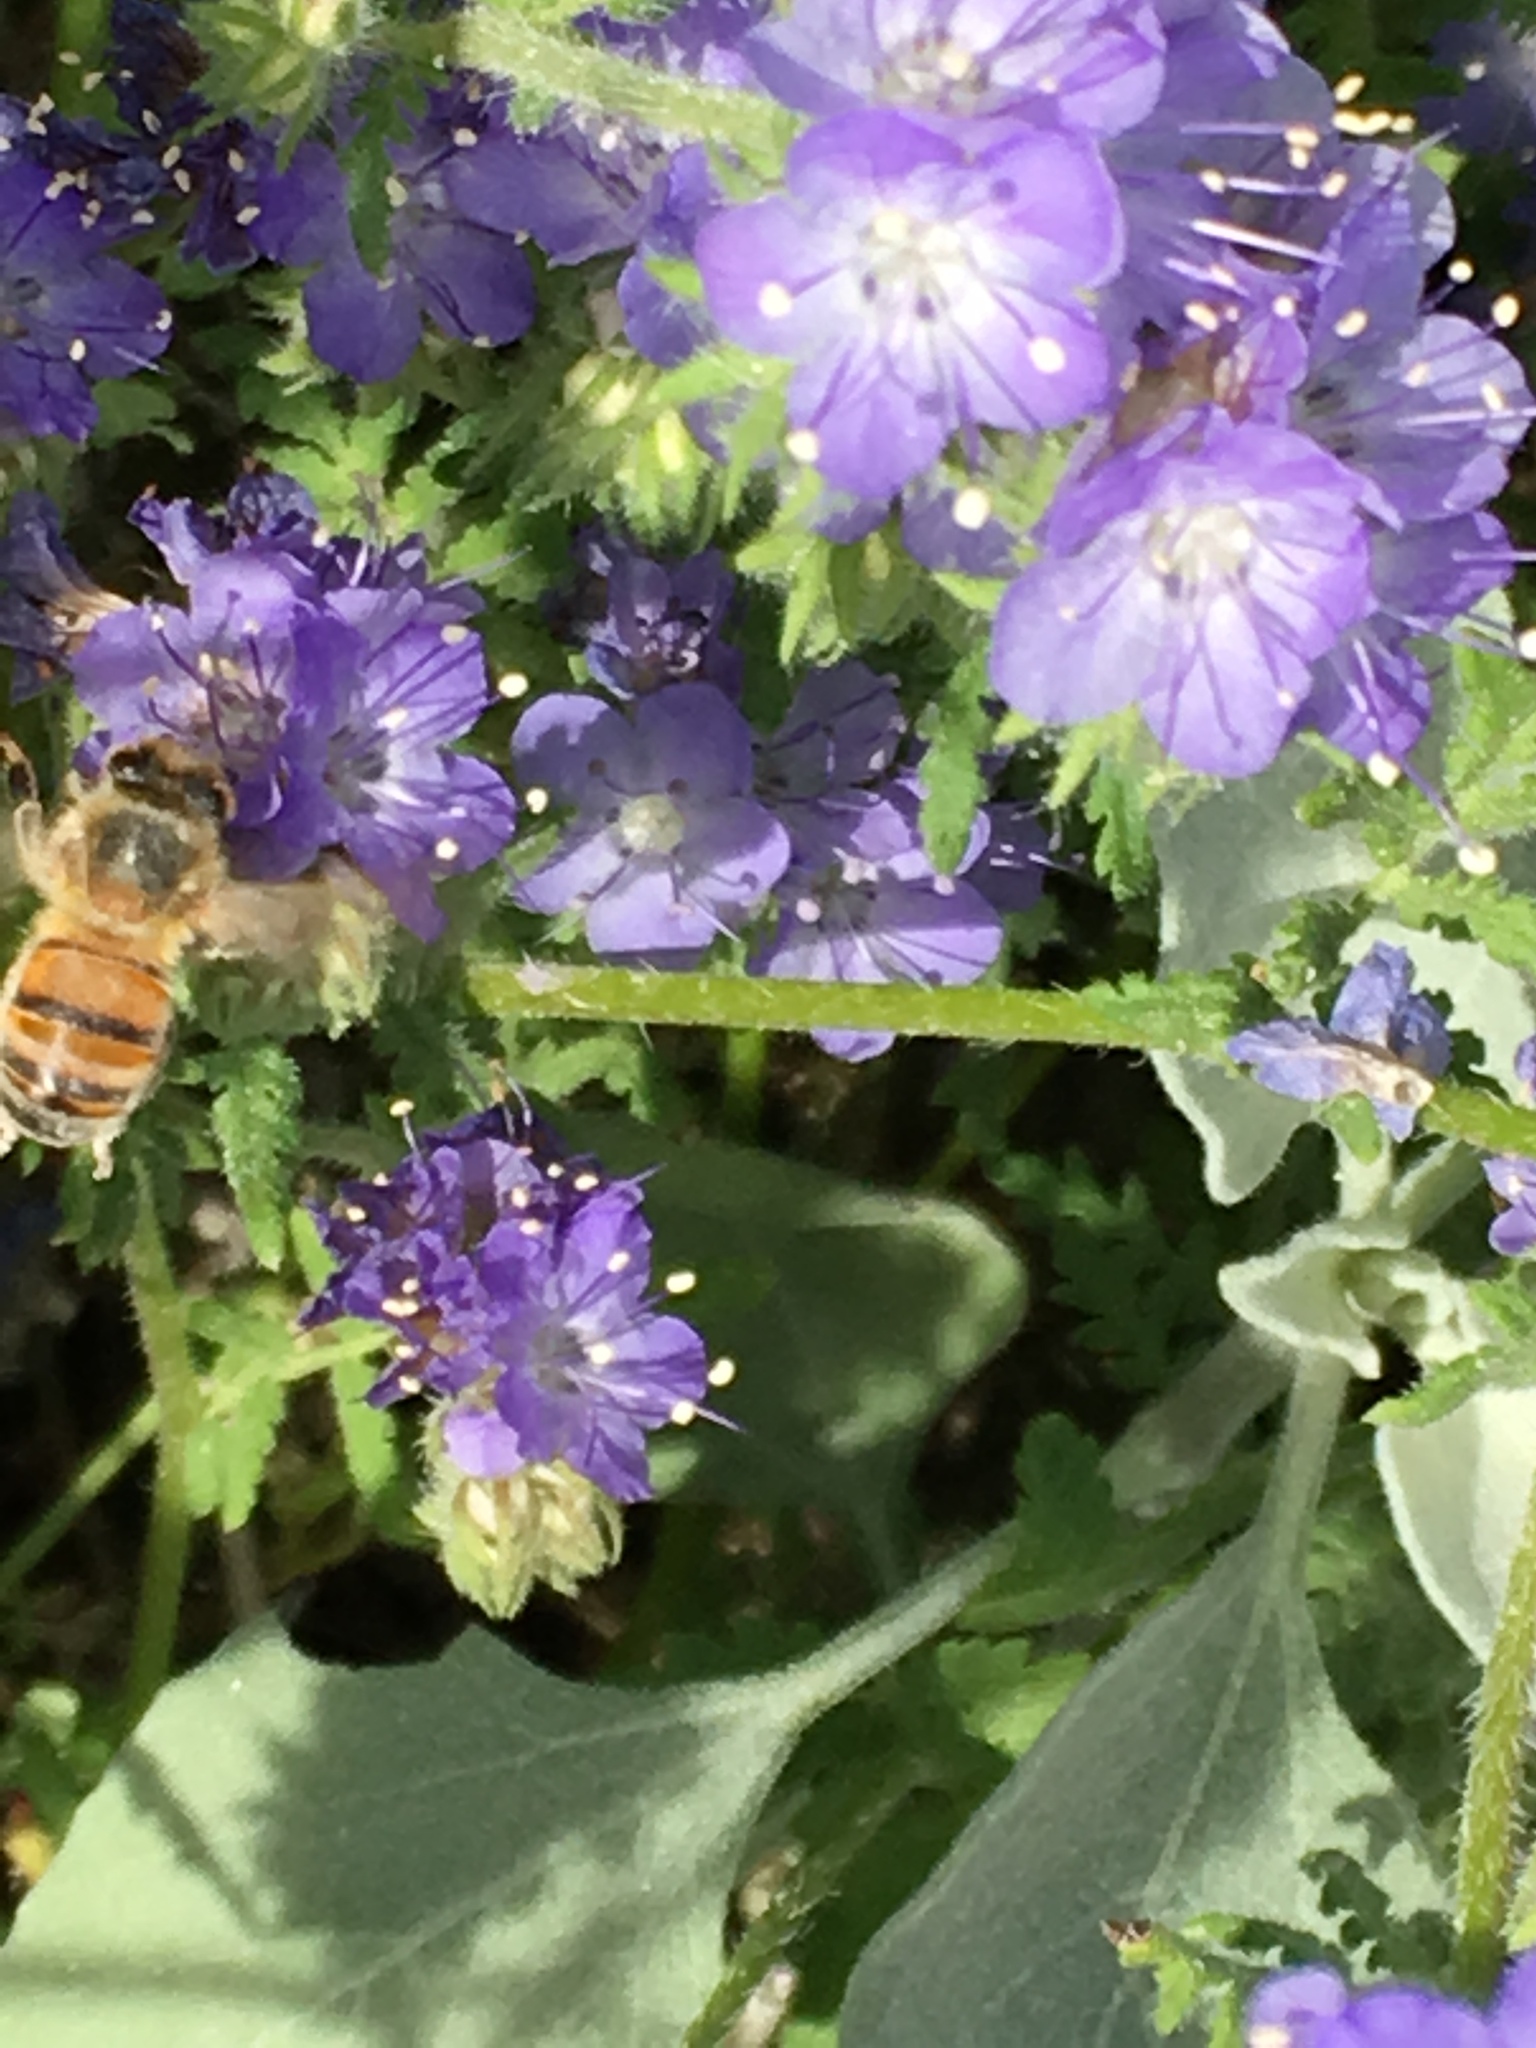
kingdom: Animalia
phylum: Arthropoda
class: Insecta
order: Hymenoptera
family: Apidae
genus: Apis
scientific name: Apis mellifera
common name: Honey bee
